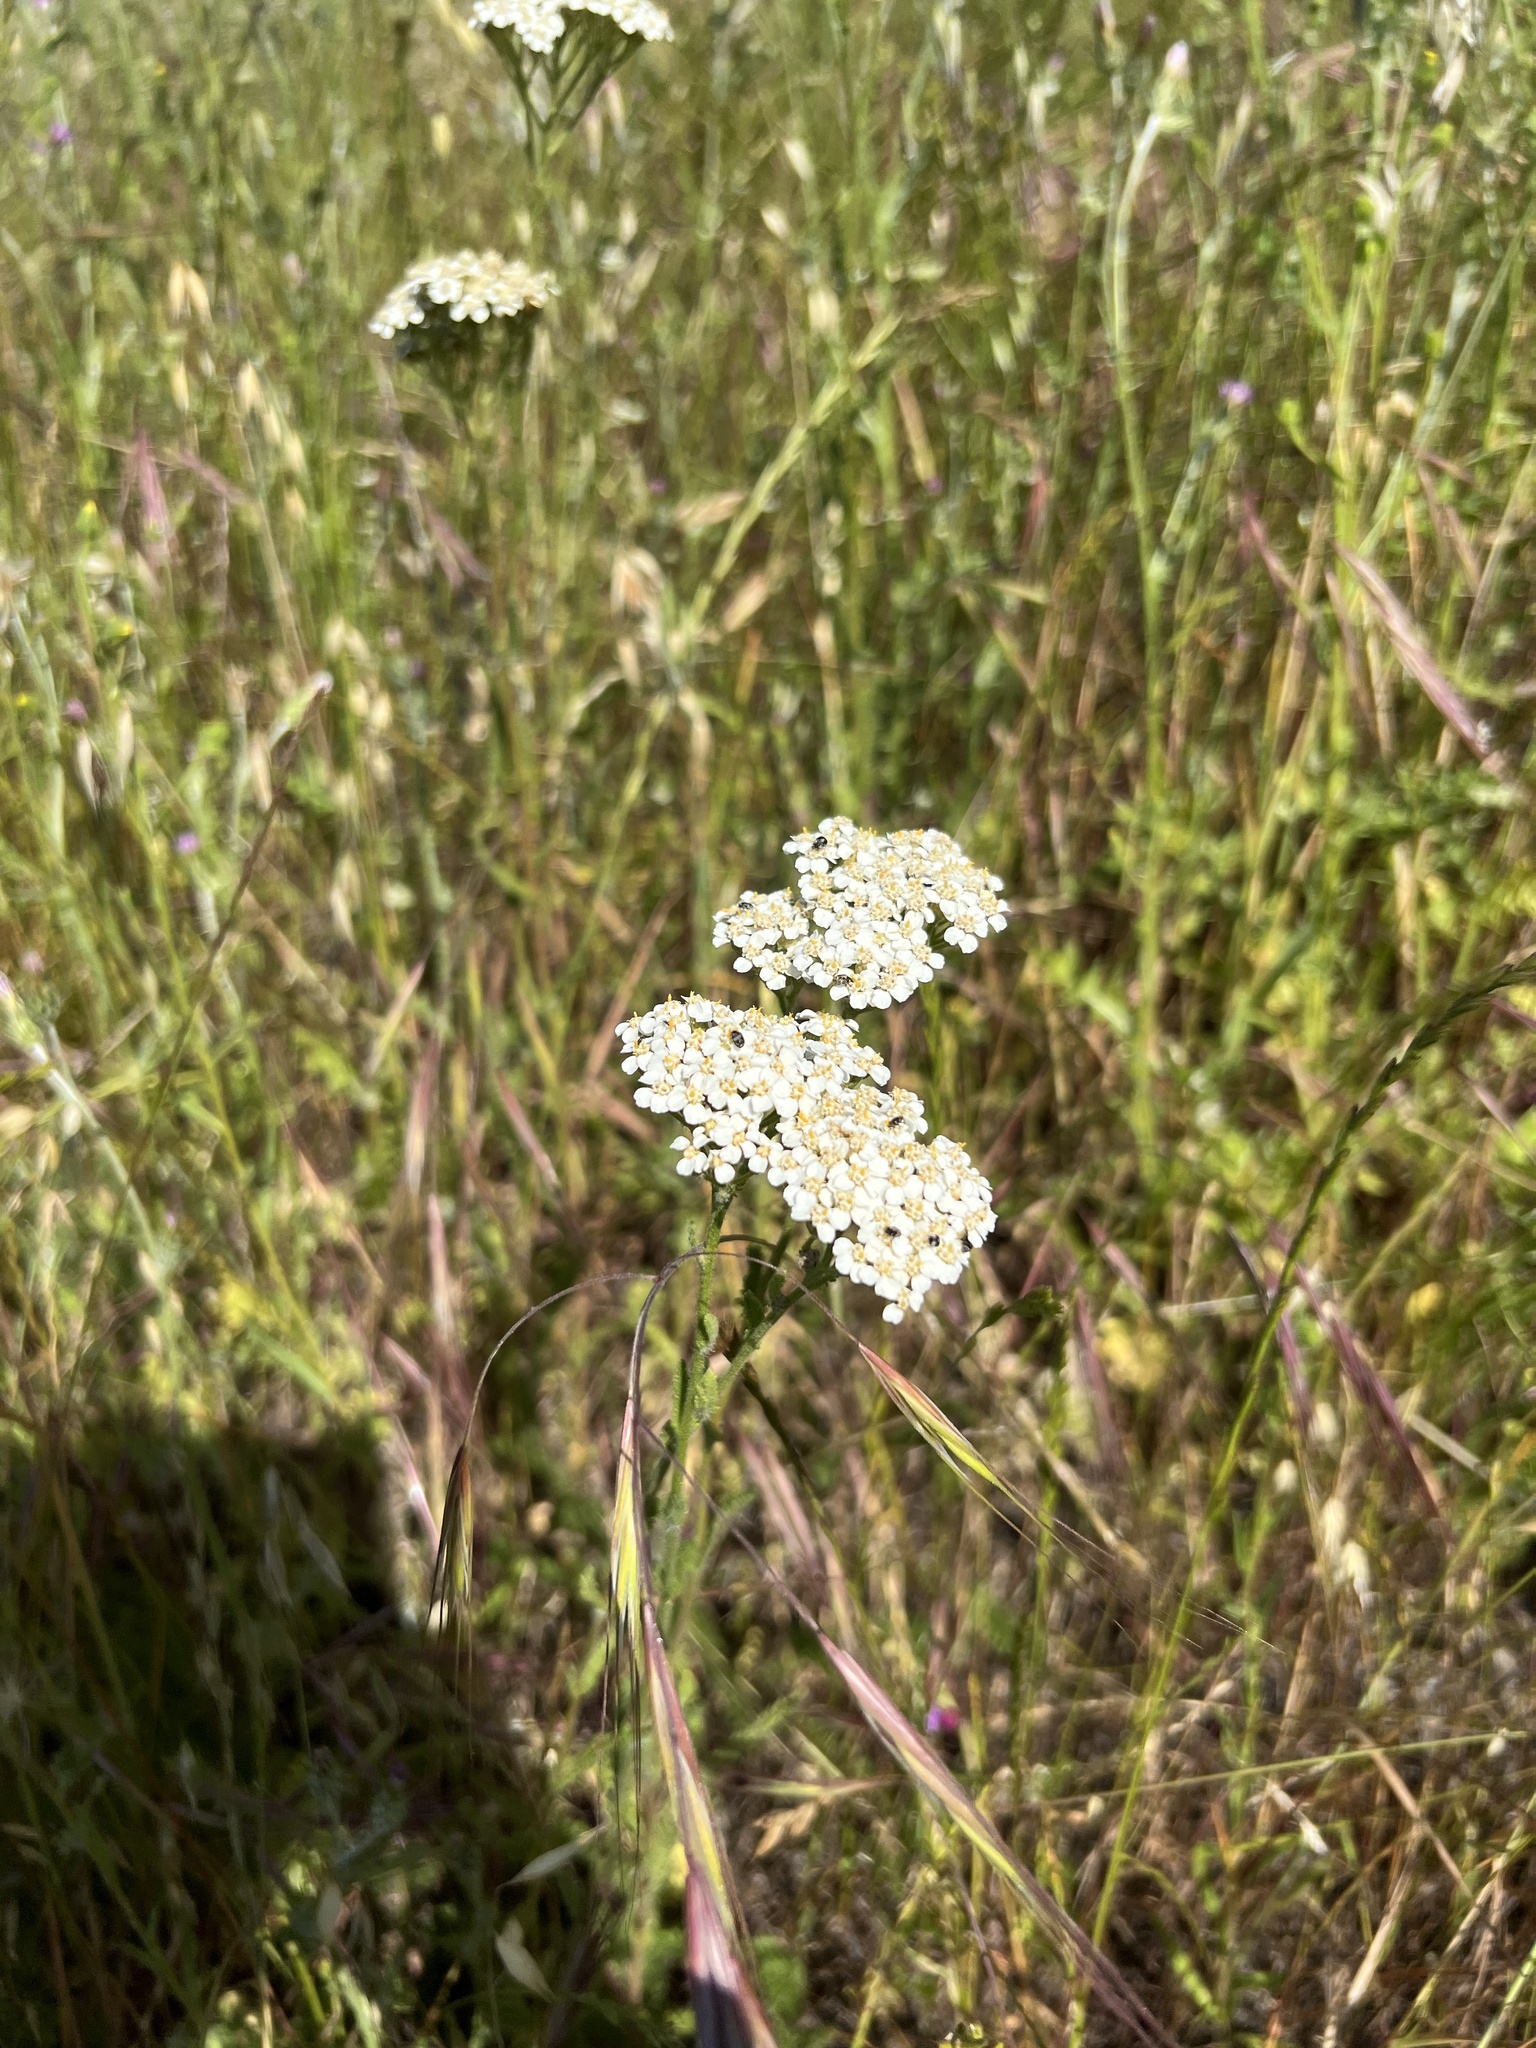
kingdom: Plantae
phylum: Tracheophyta
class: Magnoliopsida
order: Asterales
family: Asteraceae
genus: Achillea
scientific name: Achillea millefolium
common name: Yarrow
